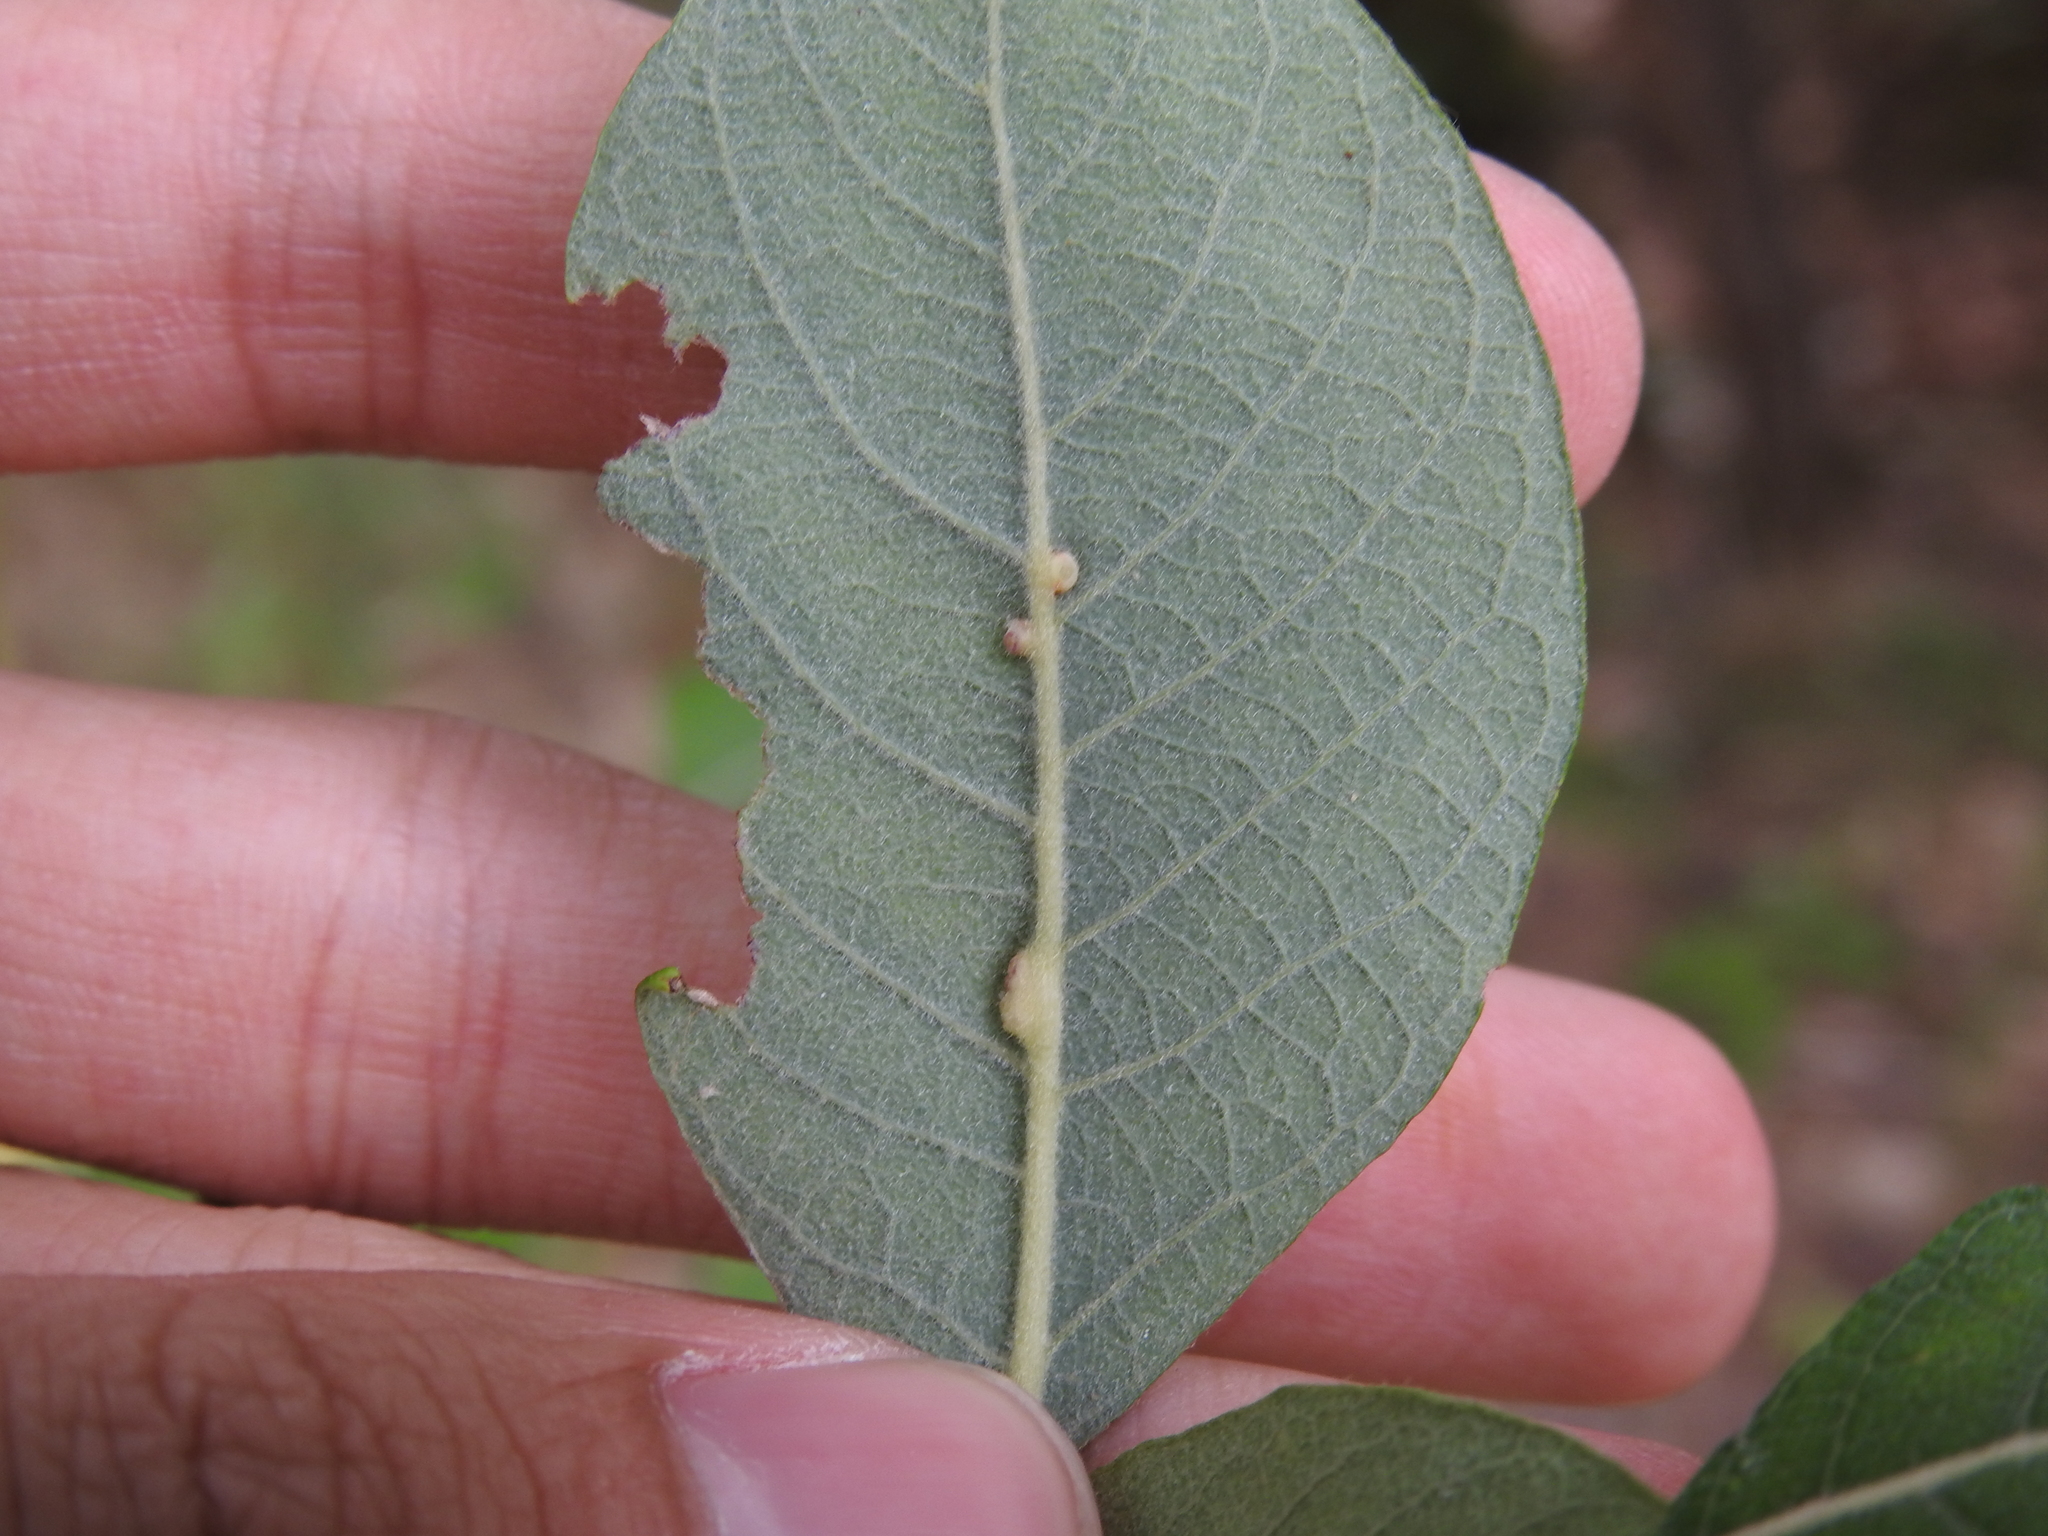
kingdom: Animalia
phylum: Arthropoda
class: Insecta
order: Diptera
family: Cecidomyiidae
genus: Iteomyia
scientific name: Iteomyia capreae
